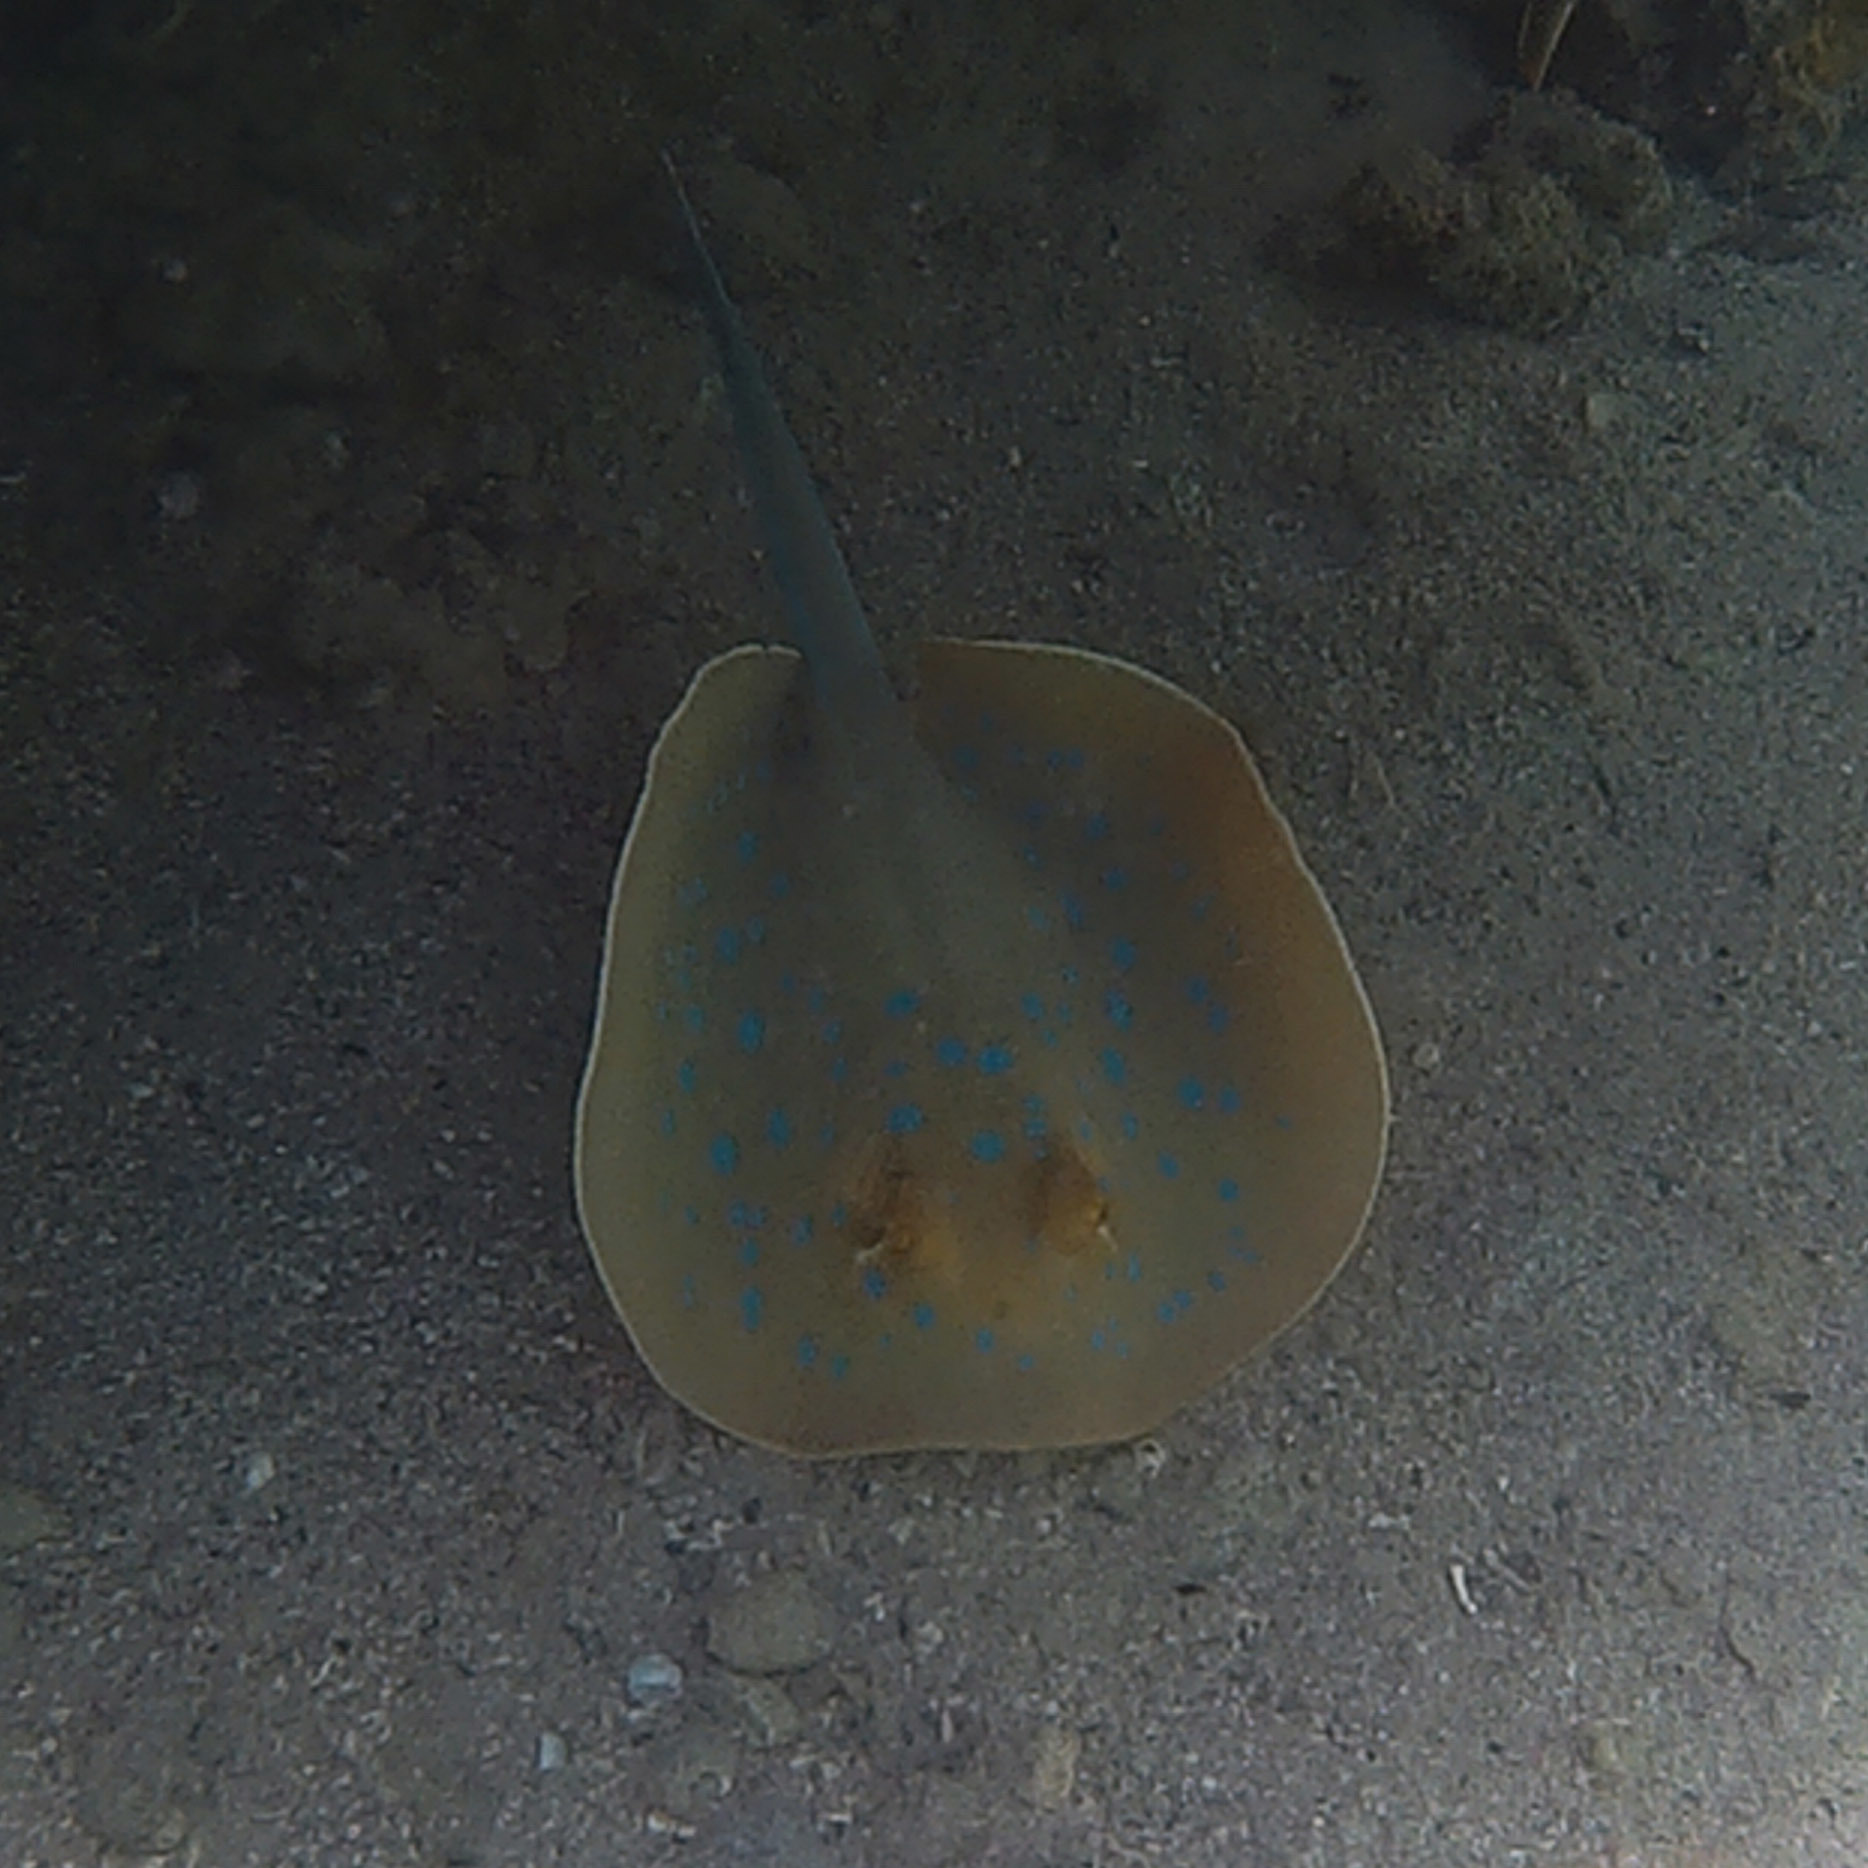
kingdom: Animalia
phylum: Chordata
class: Elasmobranchii
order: Myliobatiformes
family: Dasyatidae
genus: Taeniura
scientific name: Taeniura lymma
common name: Bluespotted ribbontail ray
